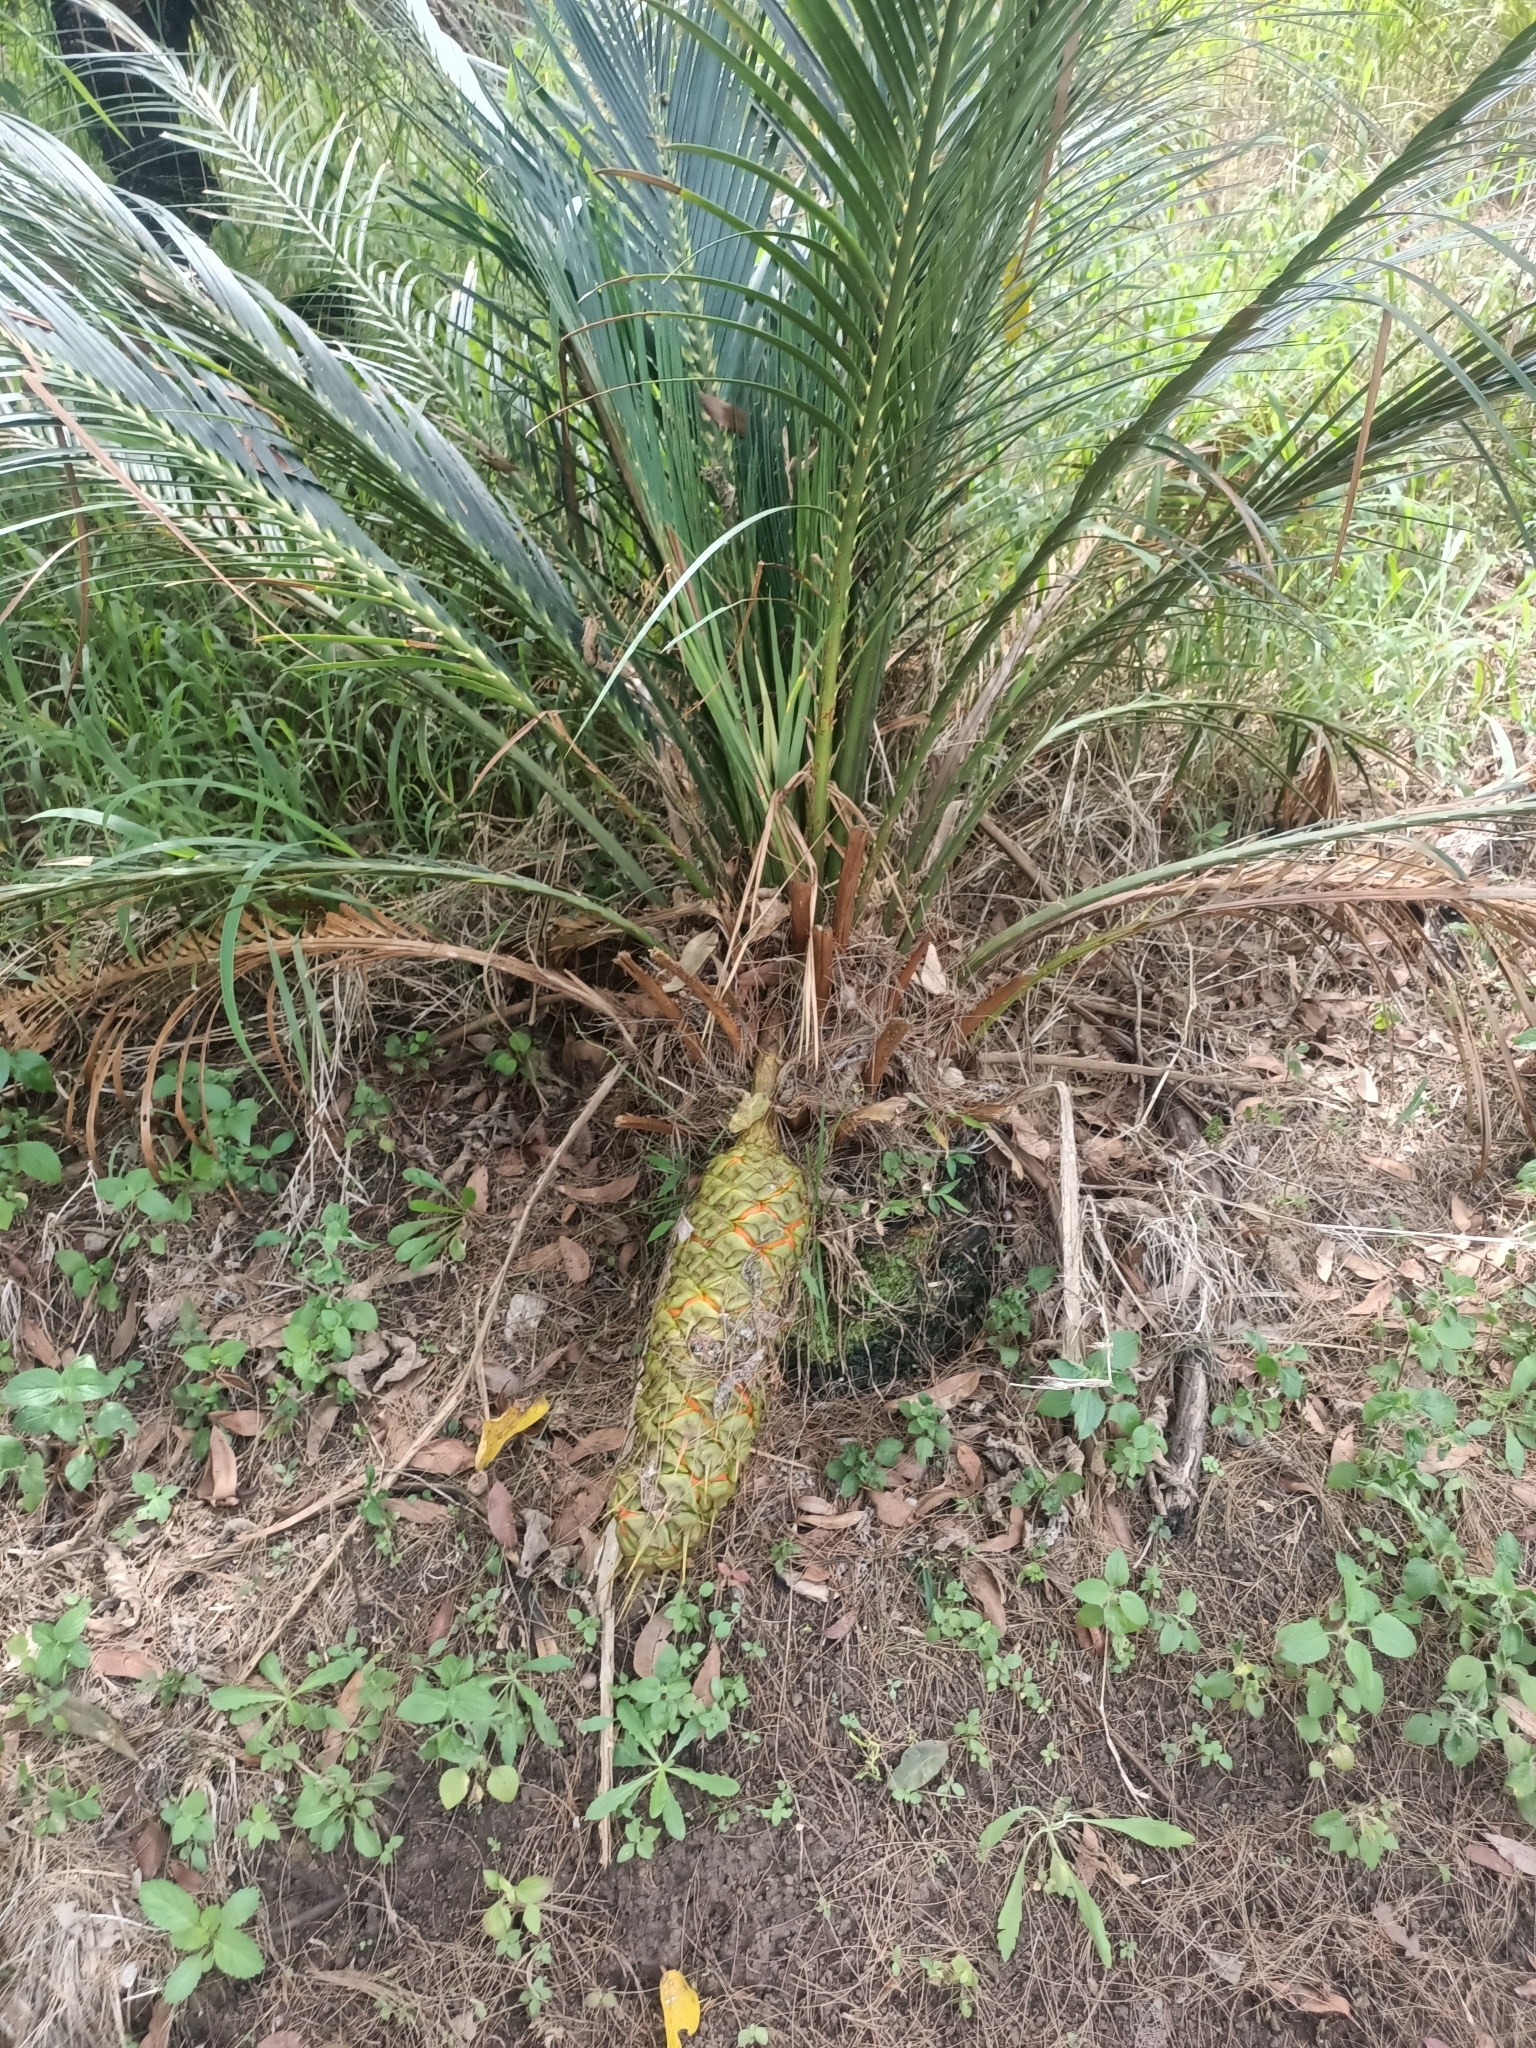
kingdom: Plantae
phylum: Tracheophyta
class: Cycadopsida
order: Cycadales
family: Zamiaceae
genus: Macrozamia
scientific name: Macrozamia miquelii
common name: Wild pineapple
